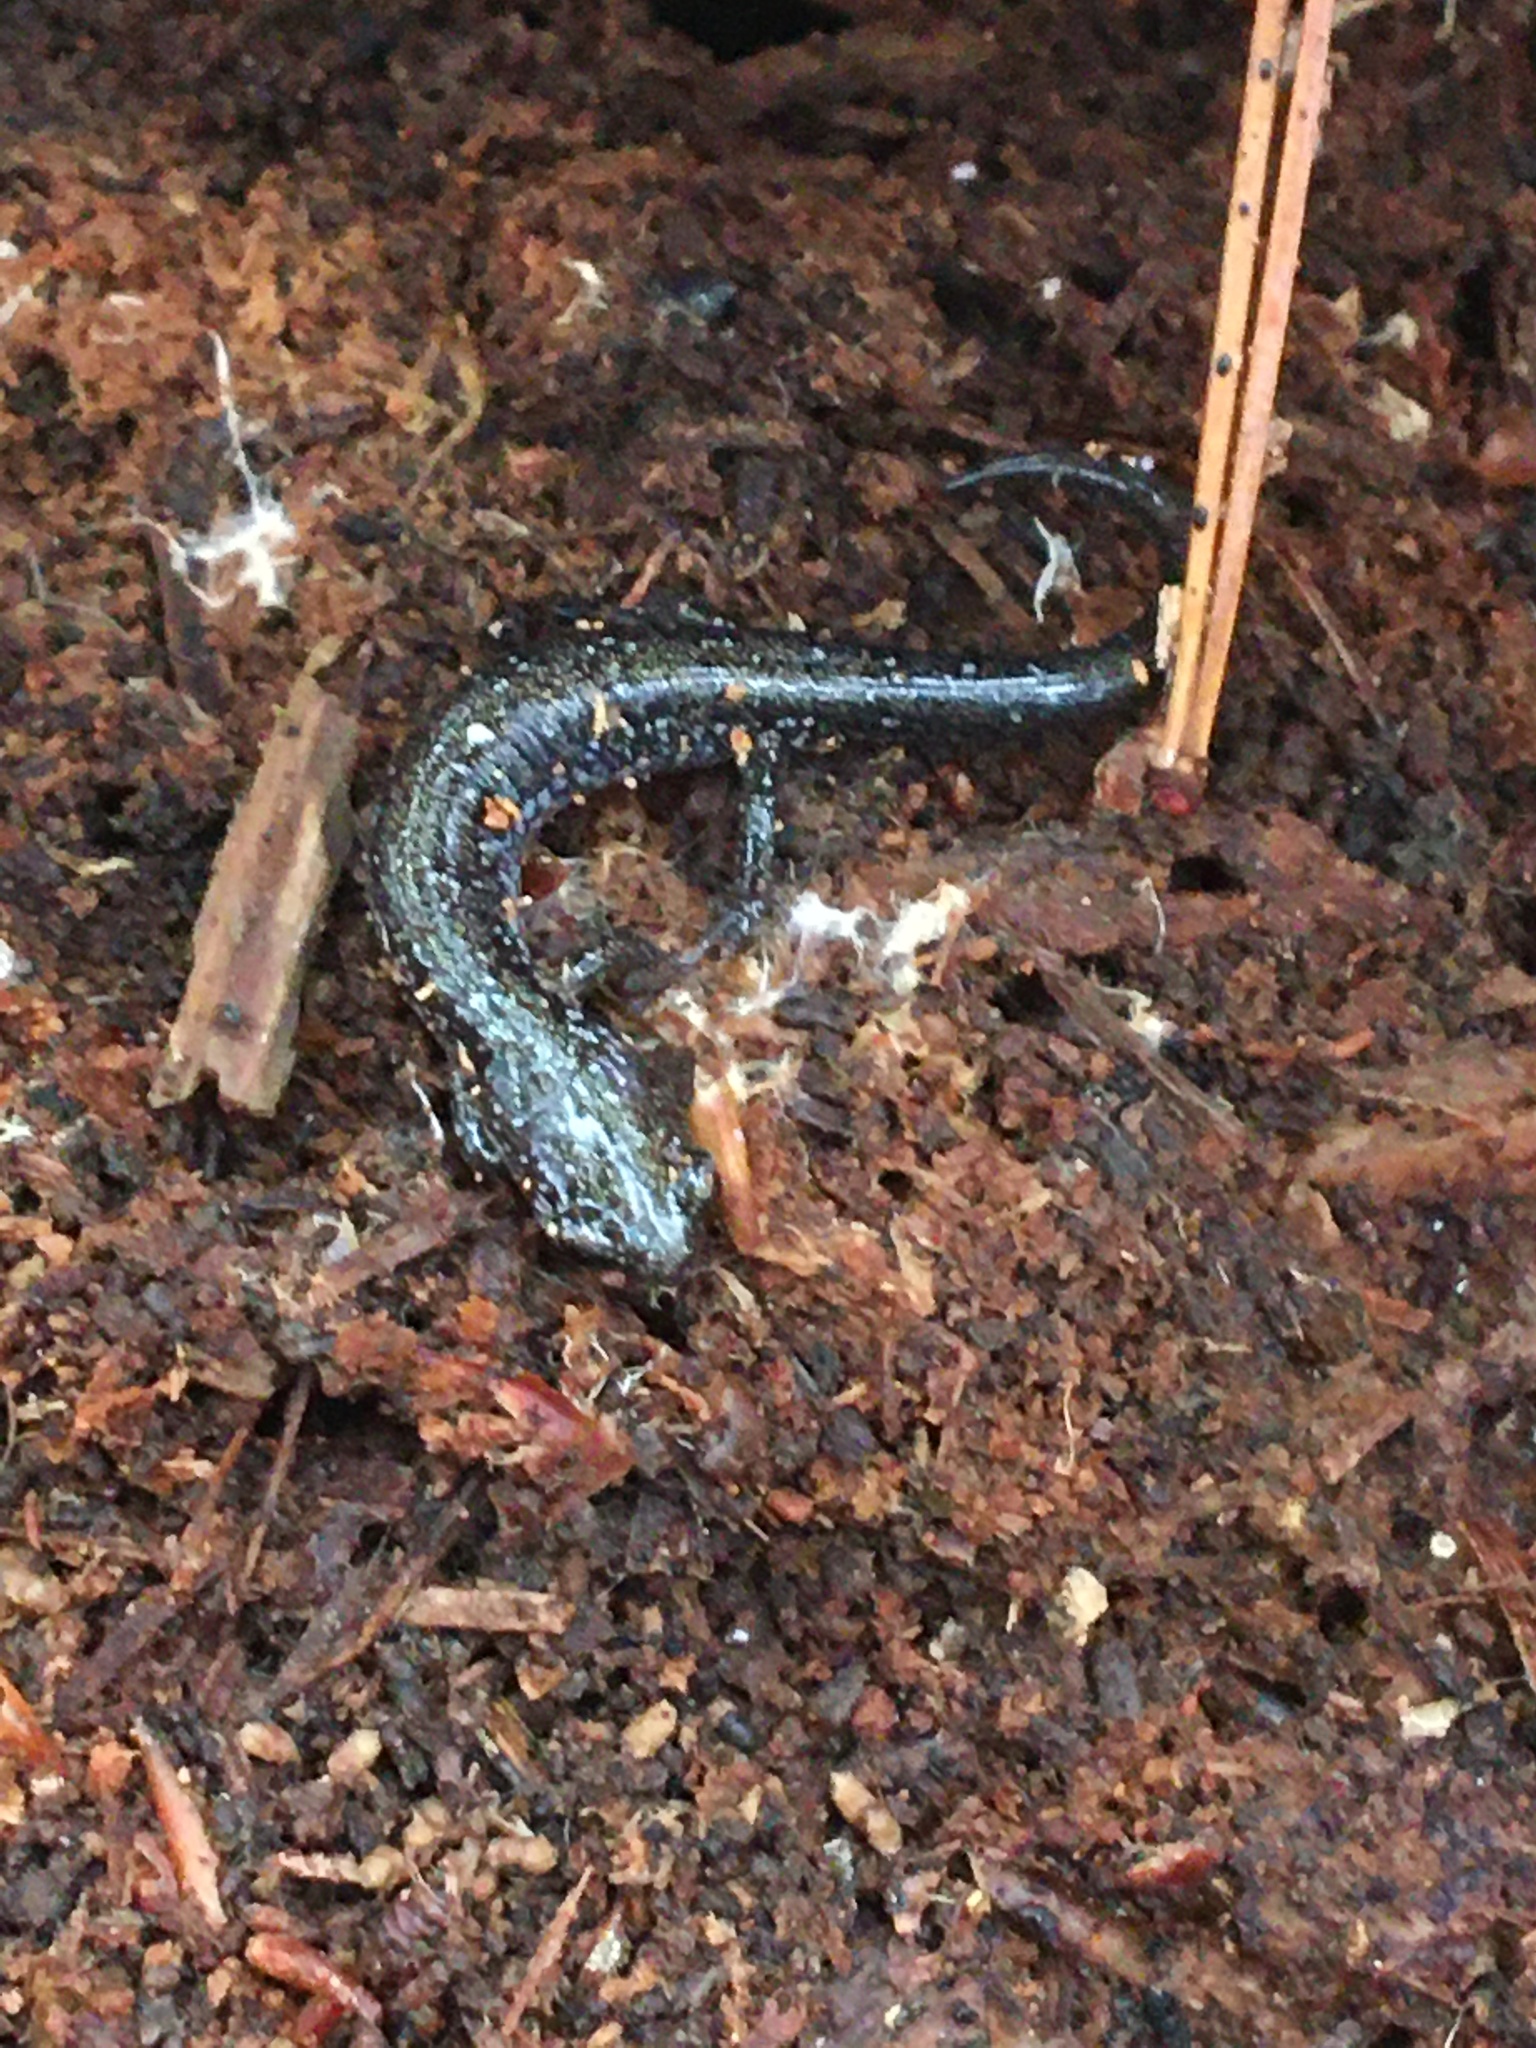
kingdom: Animalia
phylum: Chordata
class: Amphibia
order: Caudata
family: Plethodontidae
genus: Plethodon
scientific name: Plethodon cinereus
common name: Redback salamander
